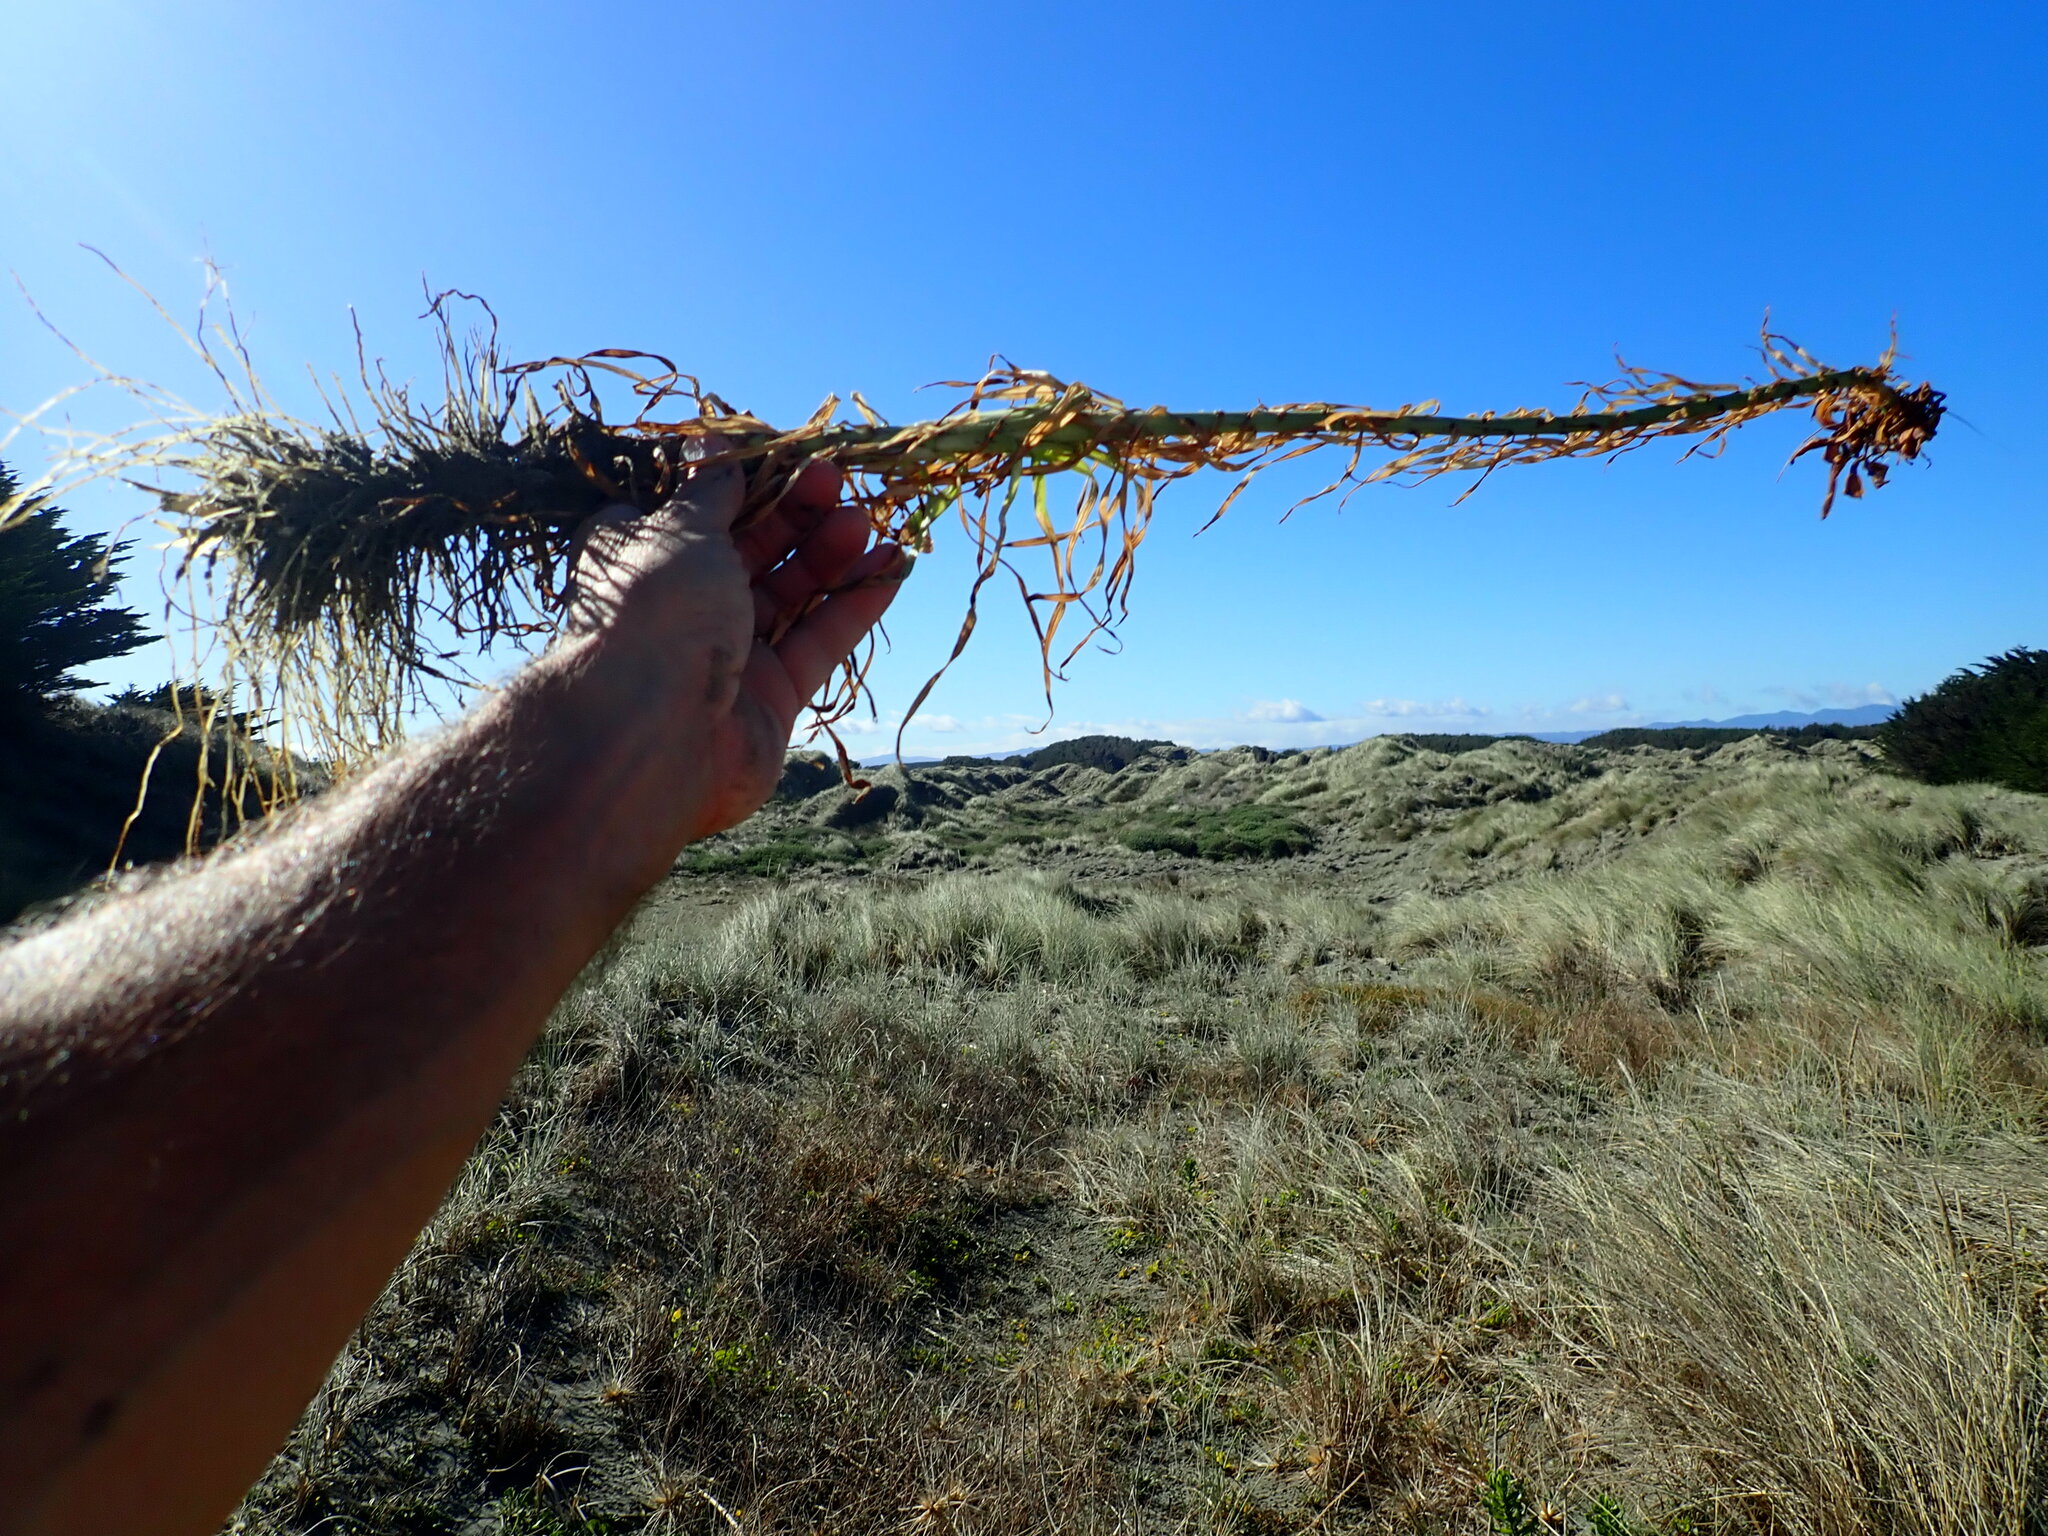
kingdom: Plantae
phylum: Tracheophyta
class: Liliopsida
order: Liliales
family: Liliaceae
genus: Lilium
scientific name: Lilium formosanum
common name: Formosa lily
